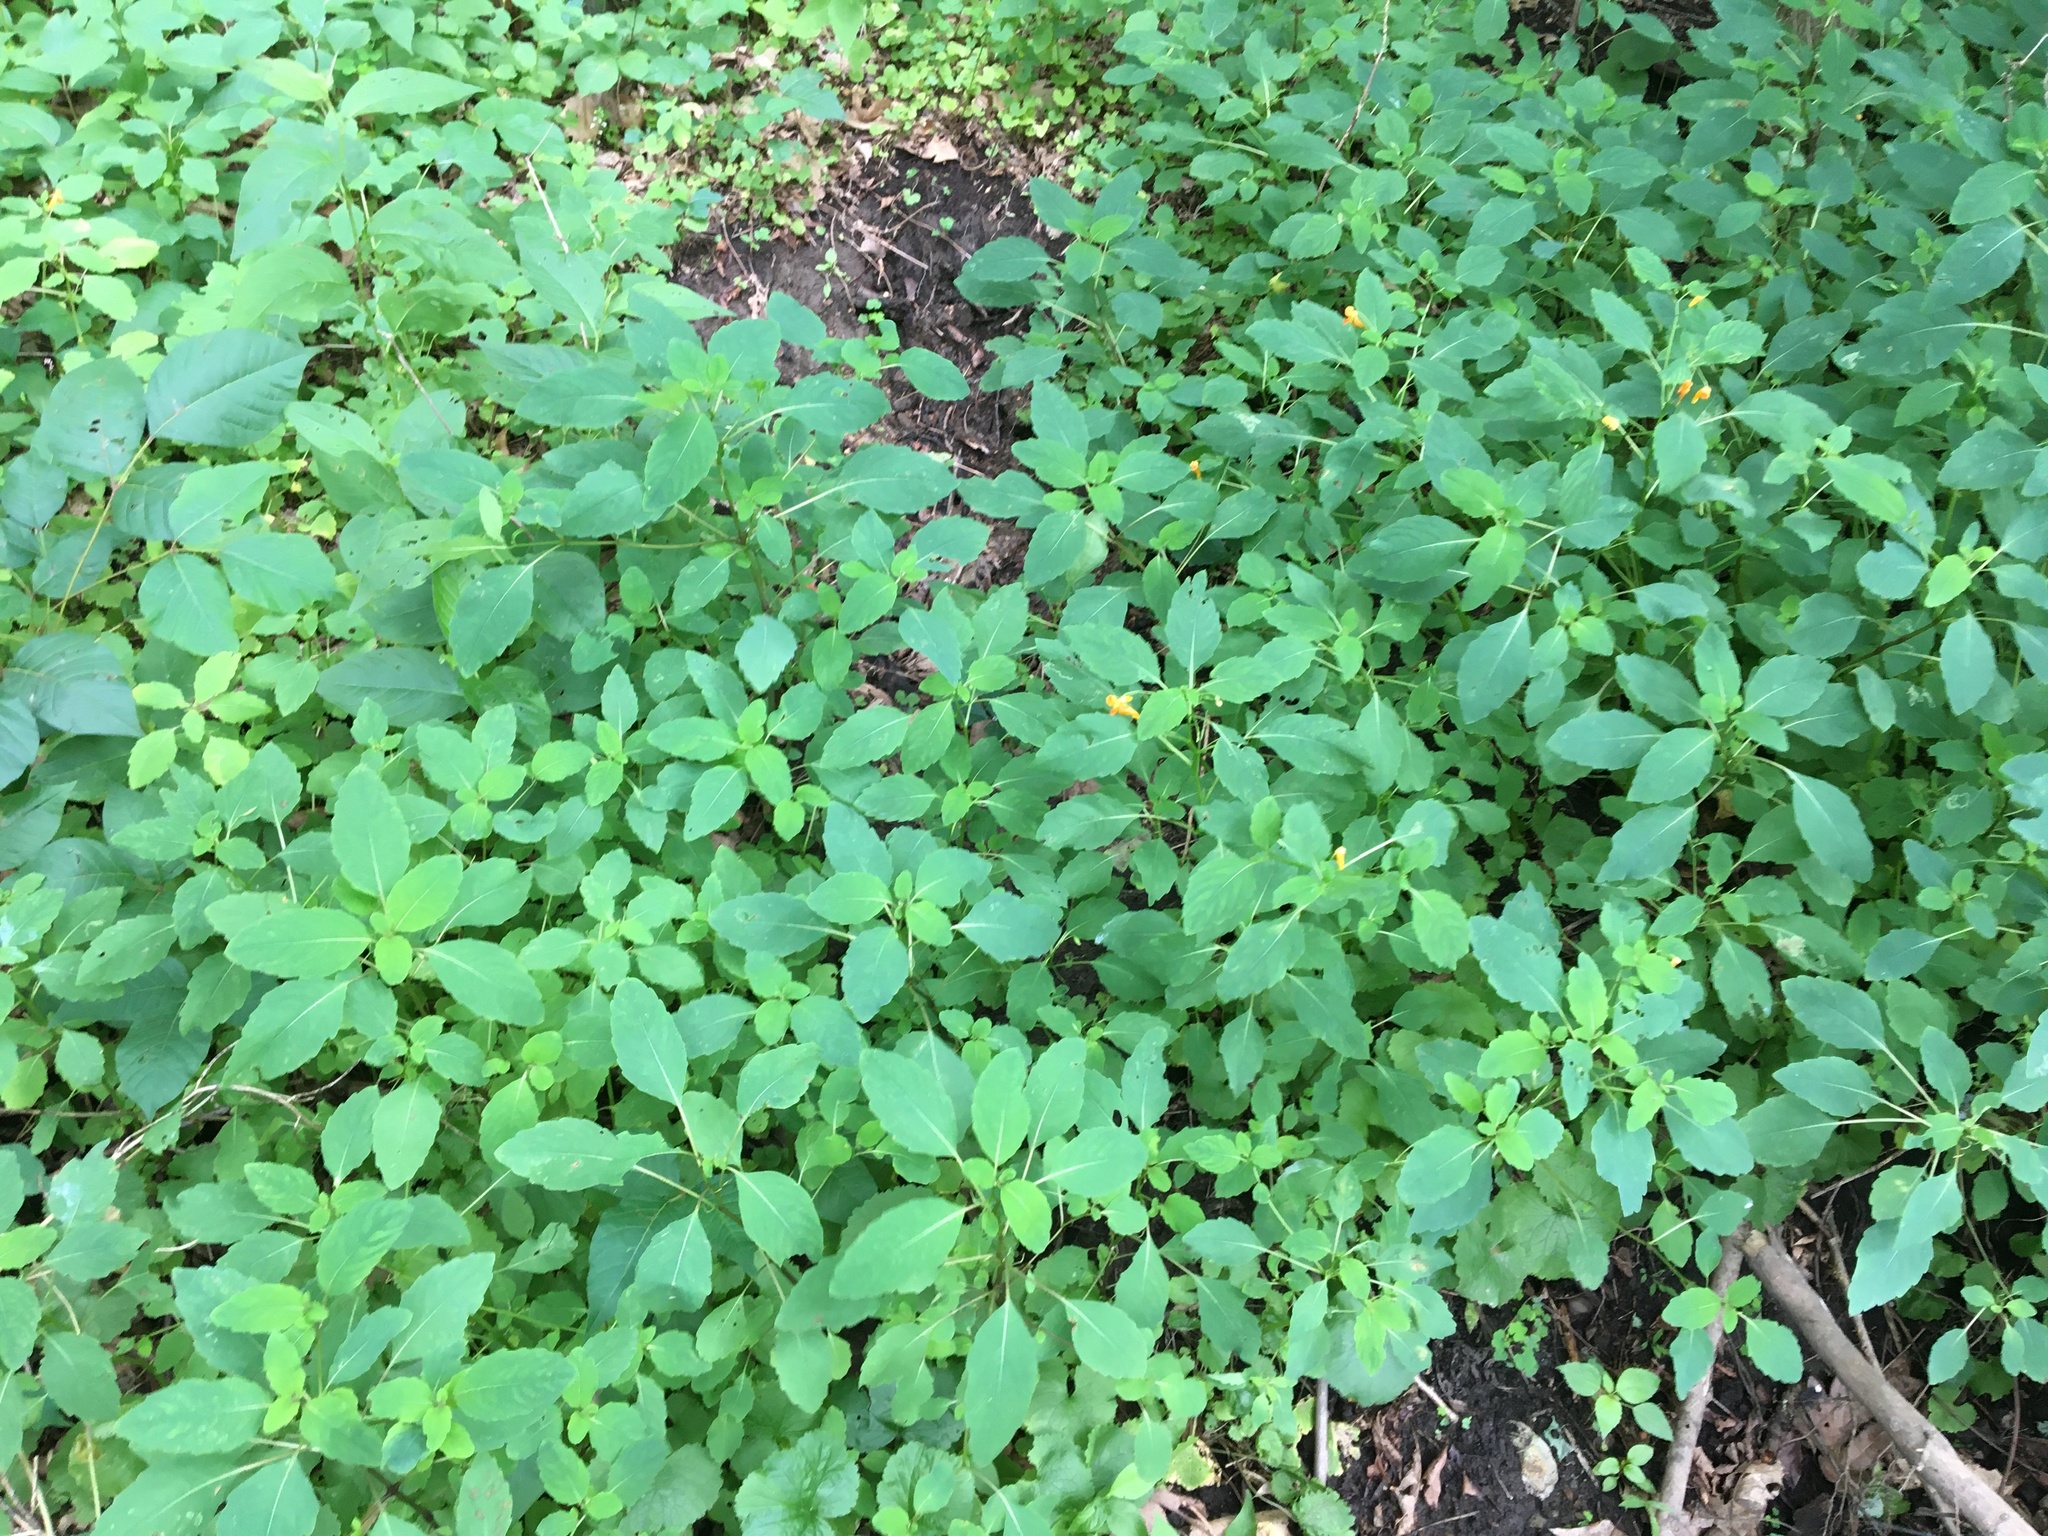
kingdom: Plantae
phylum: Tracheophyta
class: Magnoliopsida
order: Ericales
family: Balsaminaceae
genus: Impatiens
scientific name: Impatiens capensis
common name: Orange balsam
